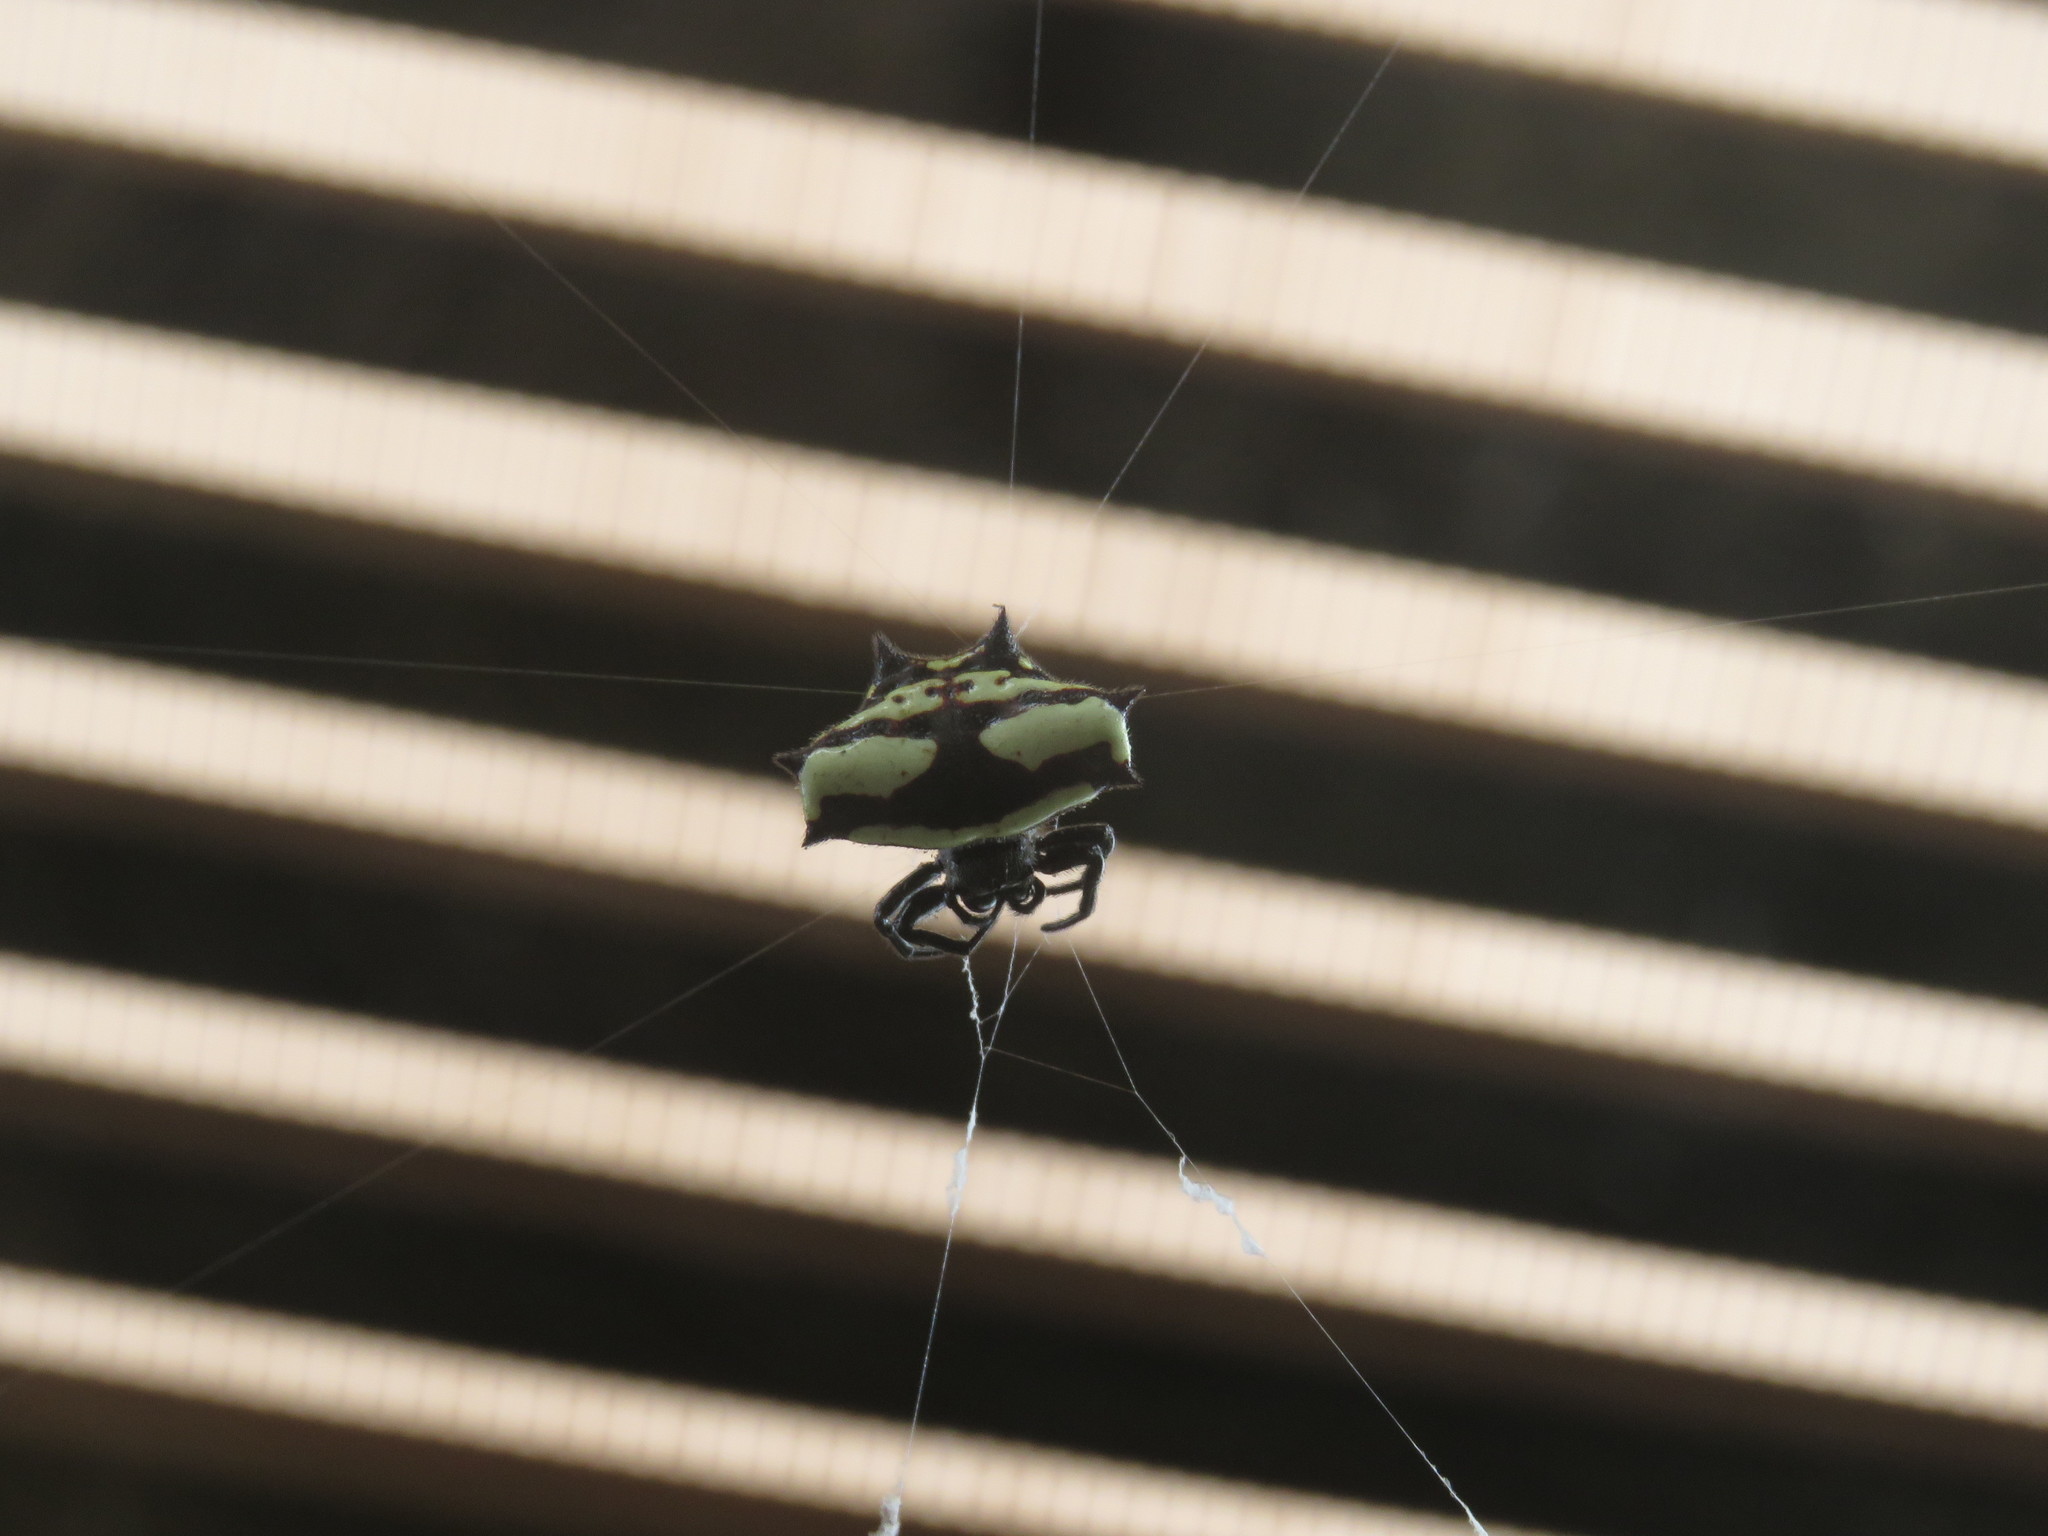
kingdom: Animalia
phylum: Arthropoda
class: Arachnida
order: Araneae
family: Araneidae
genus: Gasteracantha
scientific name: Gasteracantha cancriformis
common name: Orb weavers
